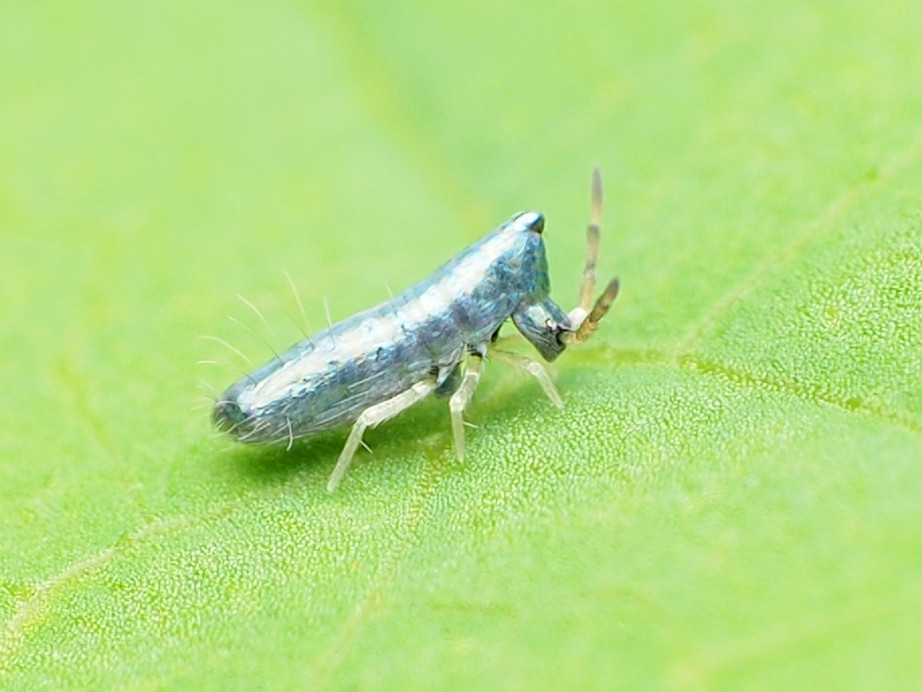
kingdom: Animalia
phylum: Arthropoda
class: Collembola
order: Entomobryomorpha
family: Entomobryidae
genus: Lepidocyrtus
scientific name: Lepidocyrtus paradoxus
